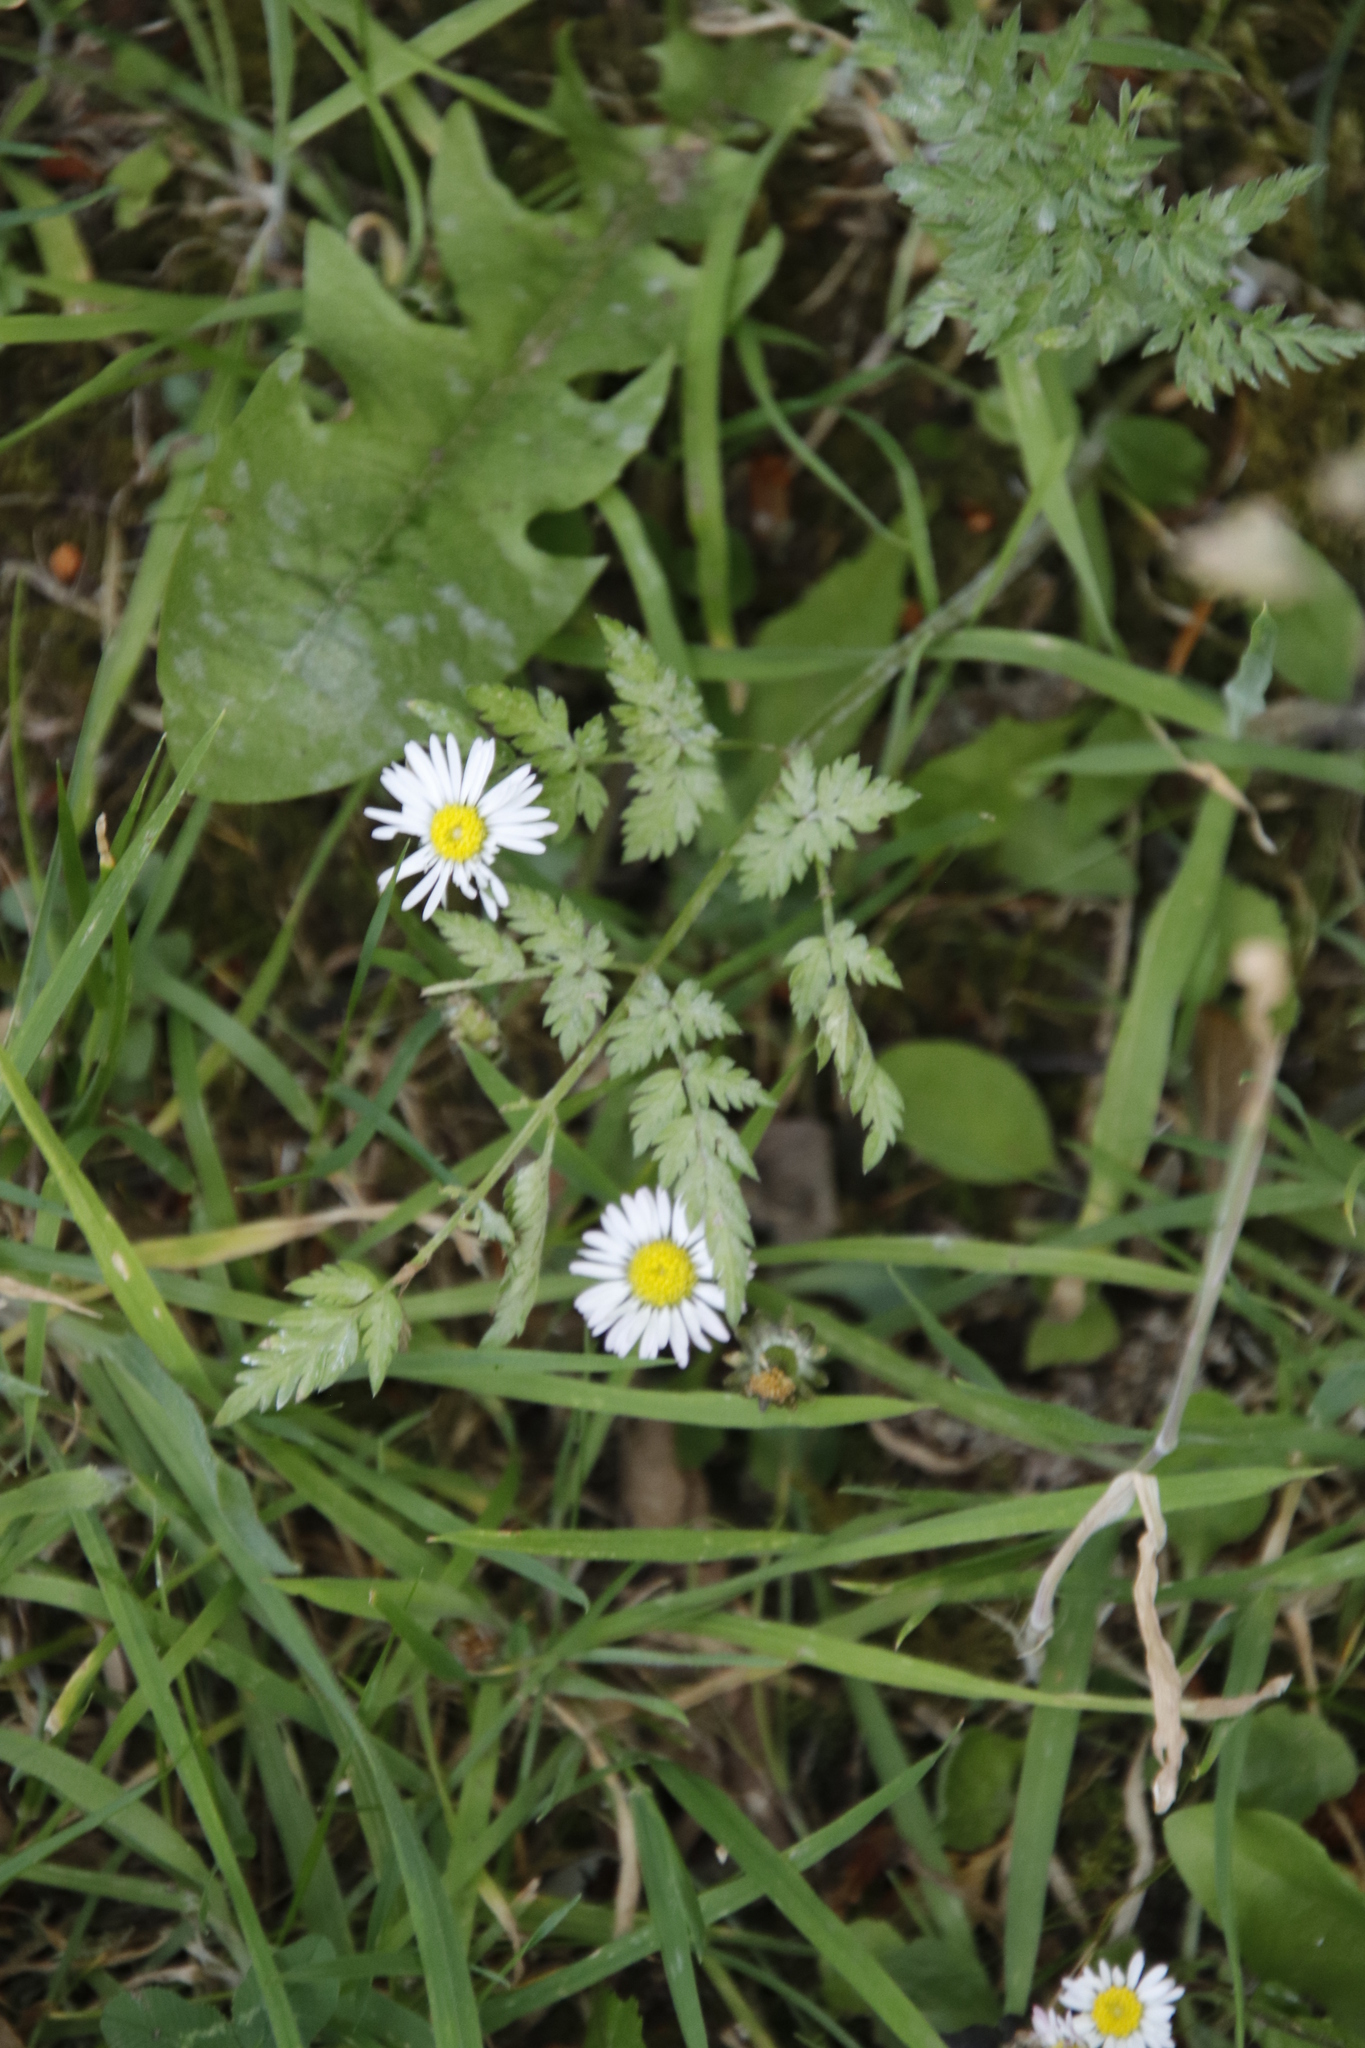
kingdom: Plantae
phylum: Tracheophyta
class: Magnoliopsida
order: Asterales
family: Asteraceae
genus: Bellis
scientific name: Bellis perennis
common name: Lawndaisy
